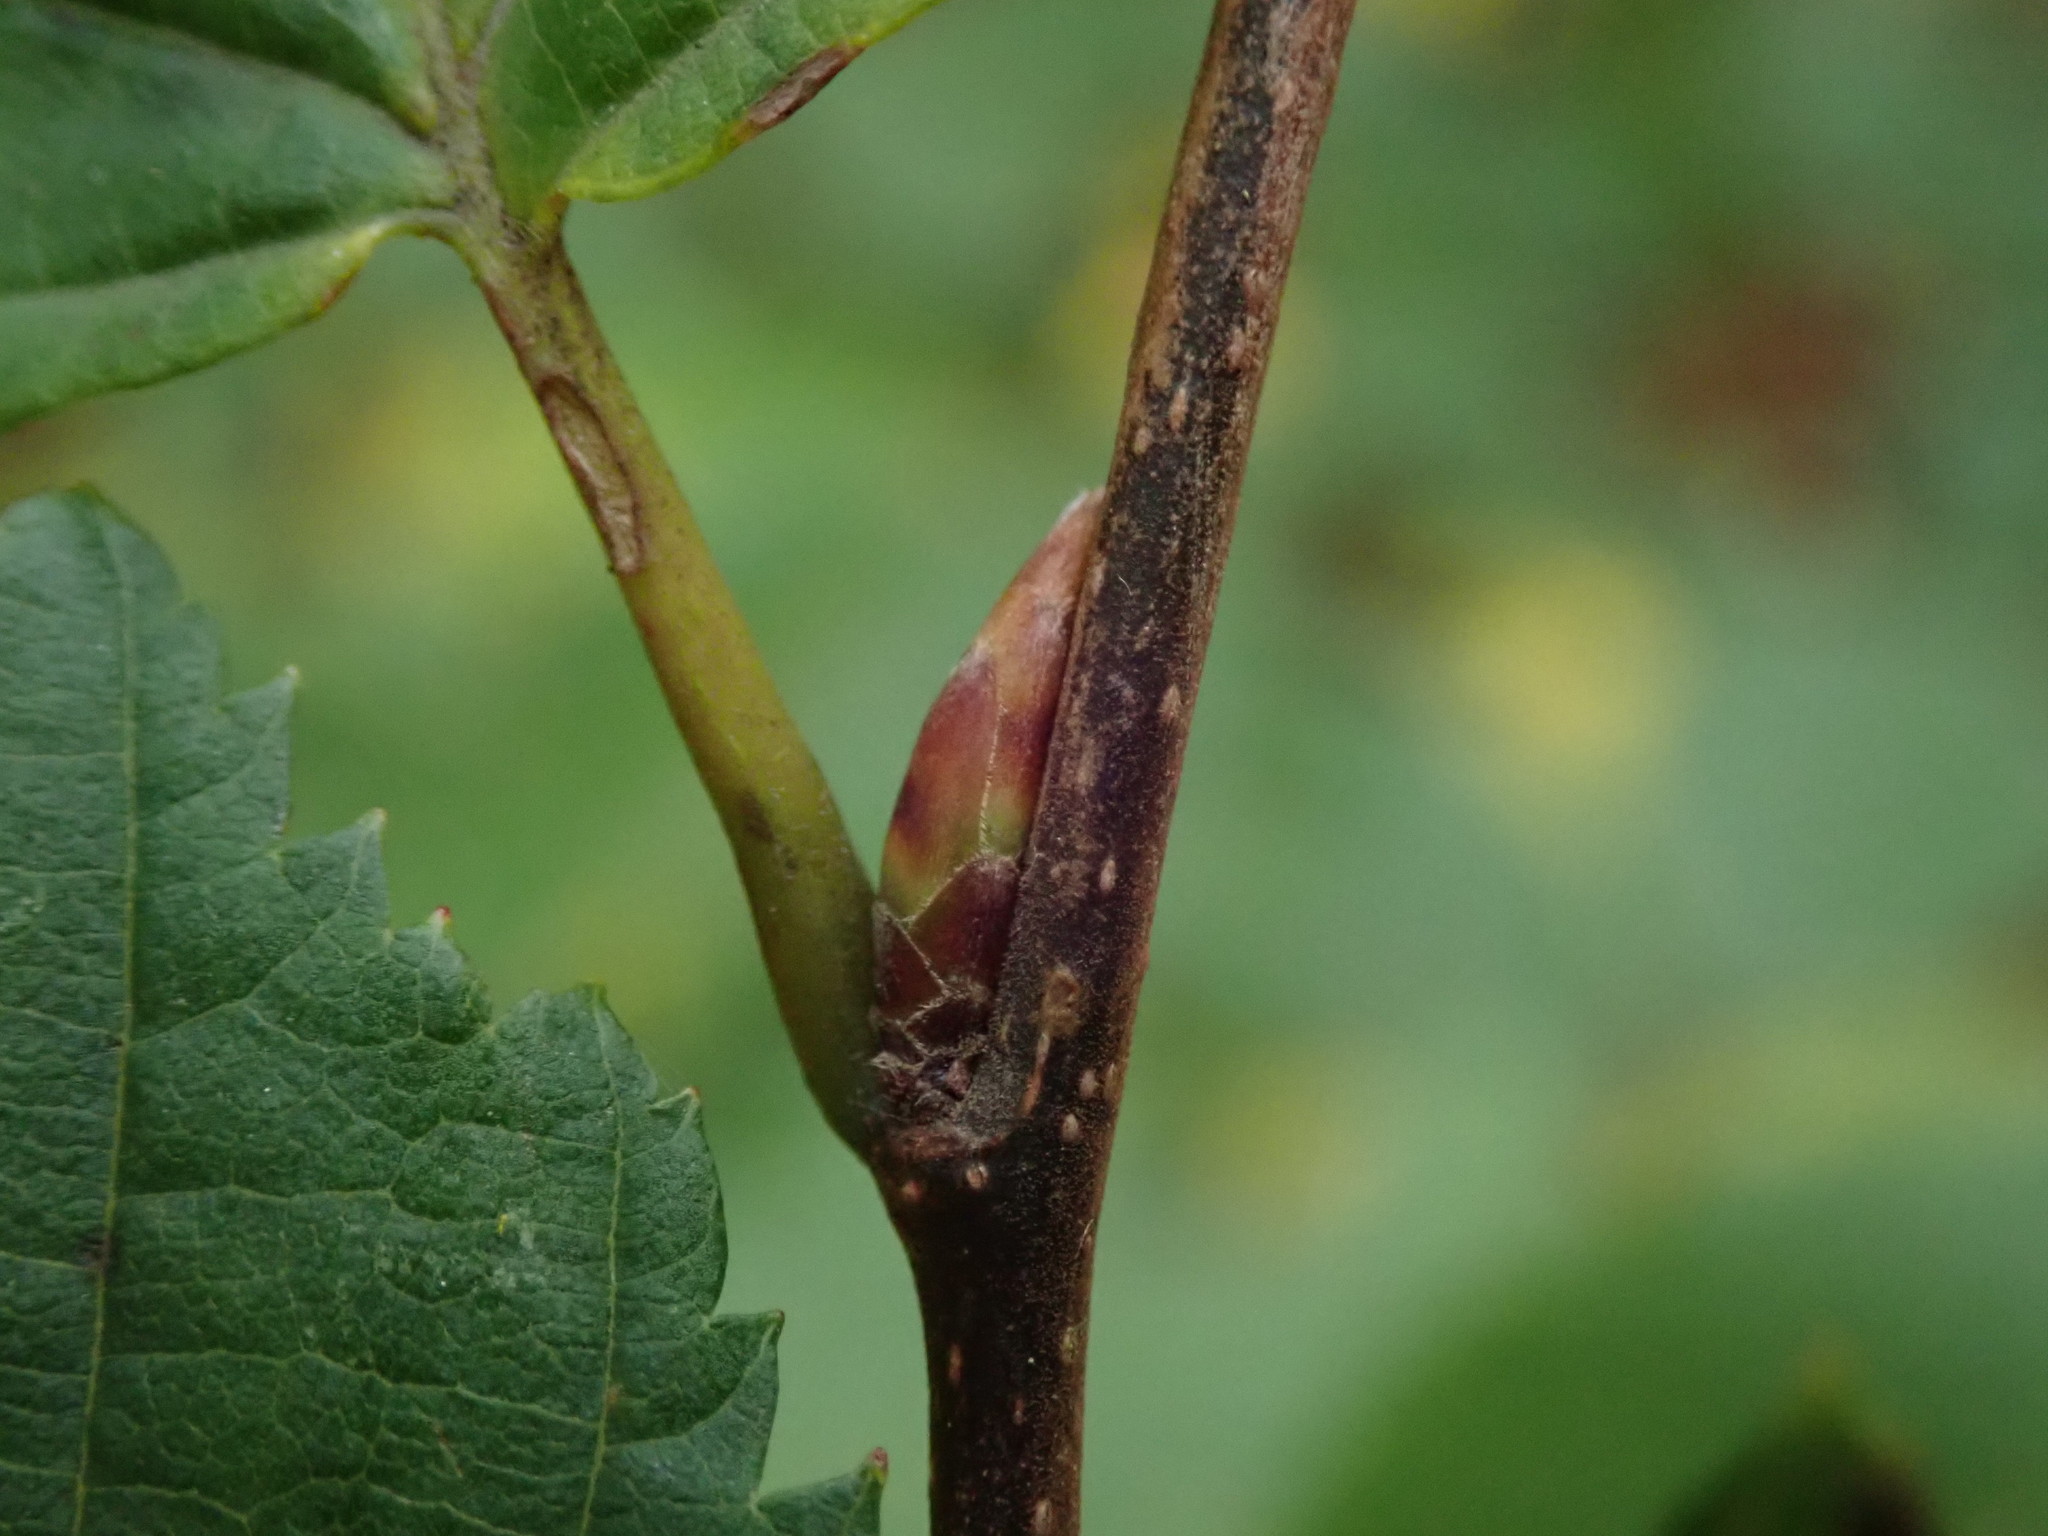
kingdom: Plantae
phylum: Tracheophyta
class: Magnoliopsida
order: Fagales
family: Betulaceae
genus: Carpinus
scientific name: Carpinus betulus
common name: Hornbeam
